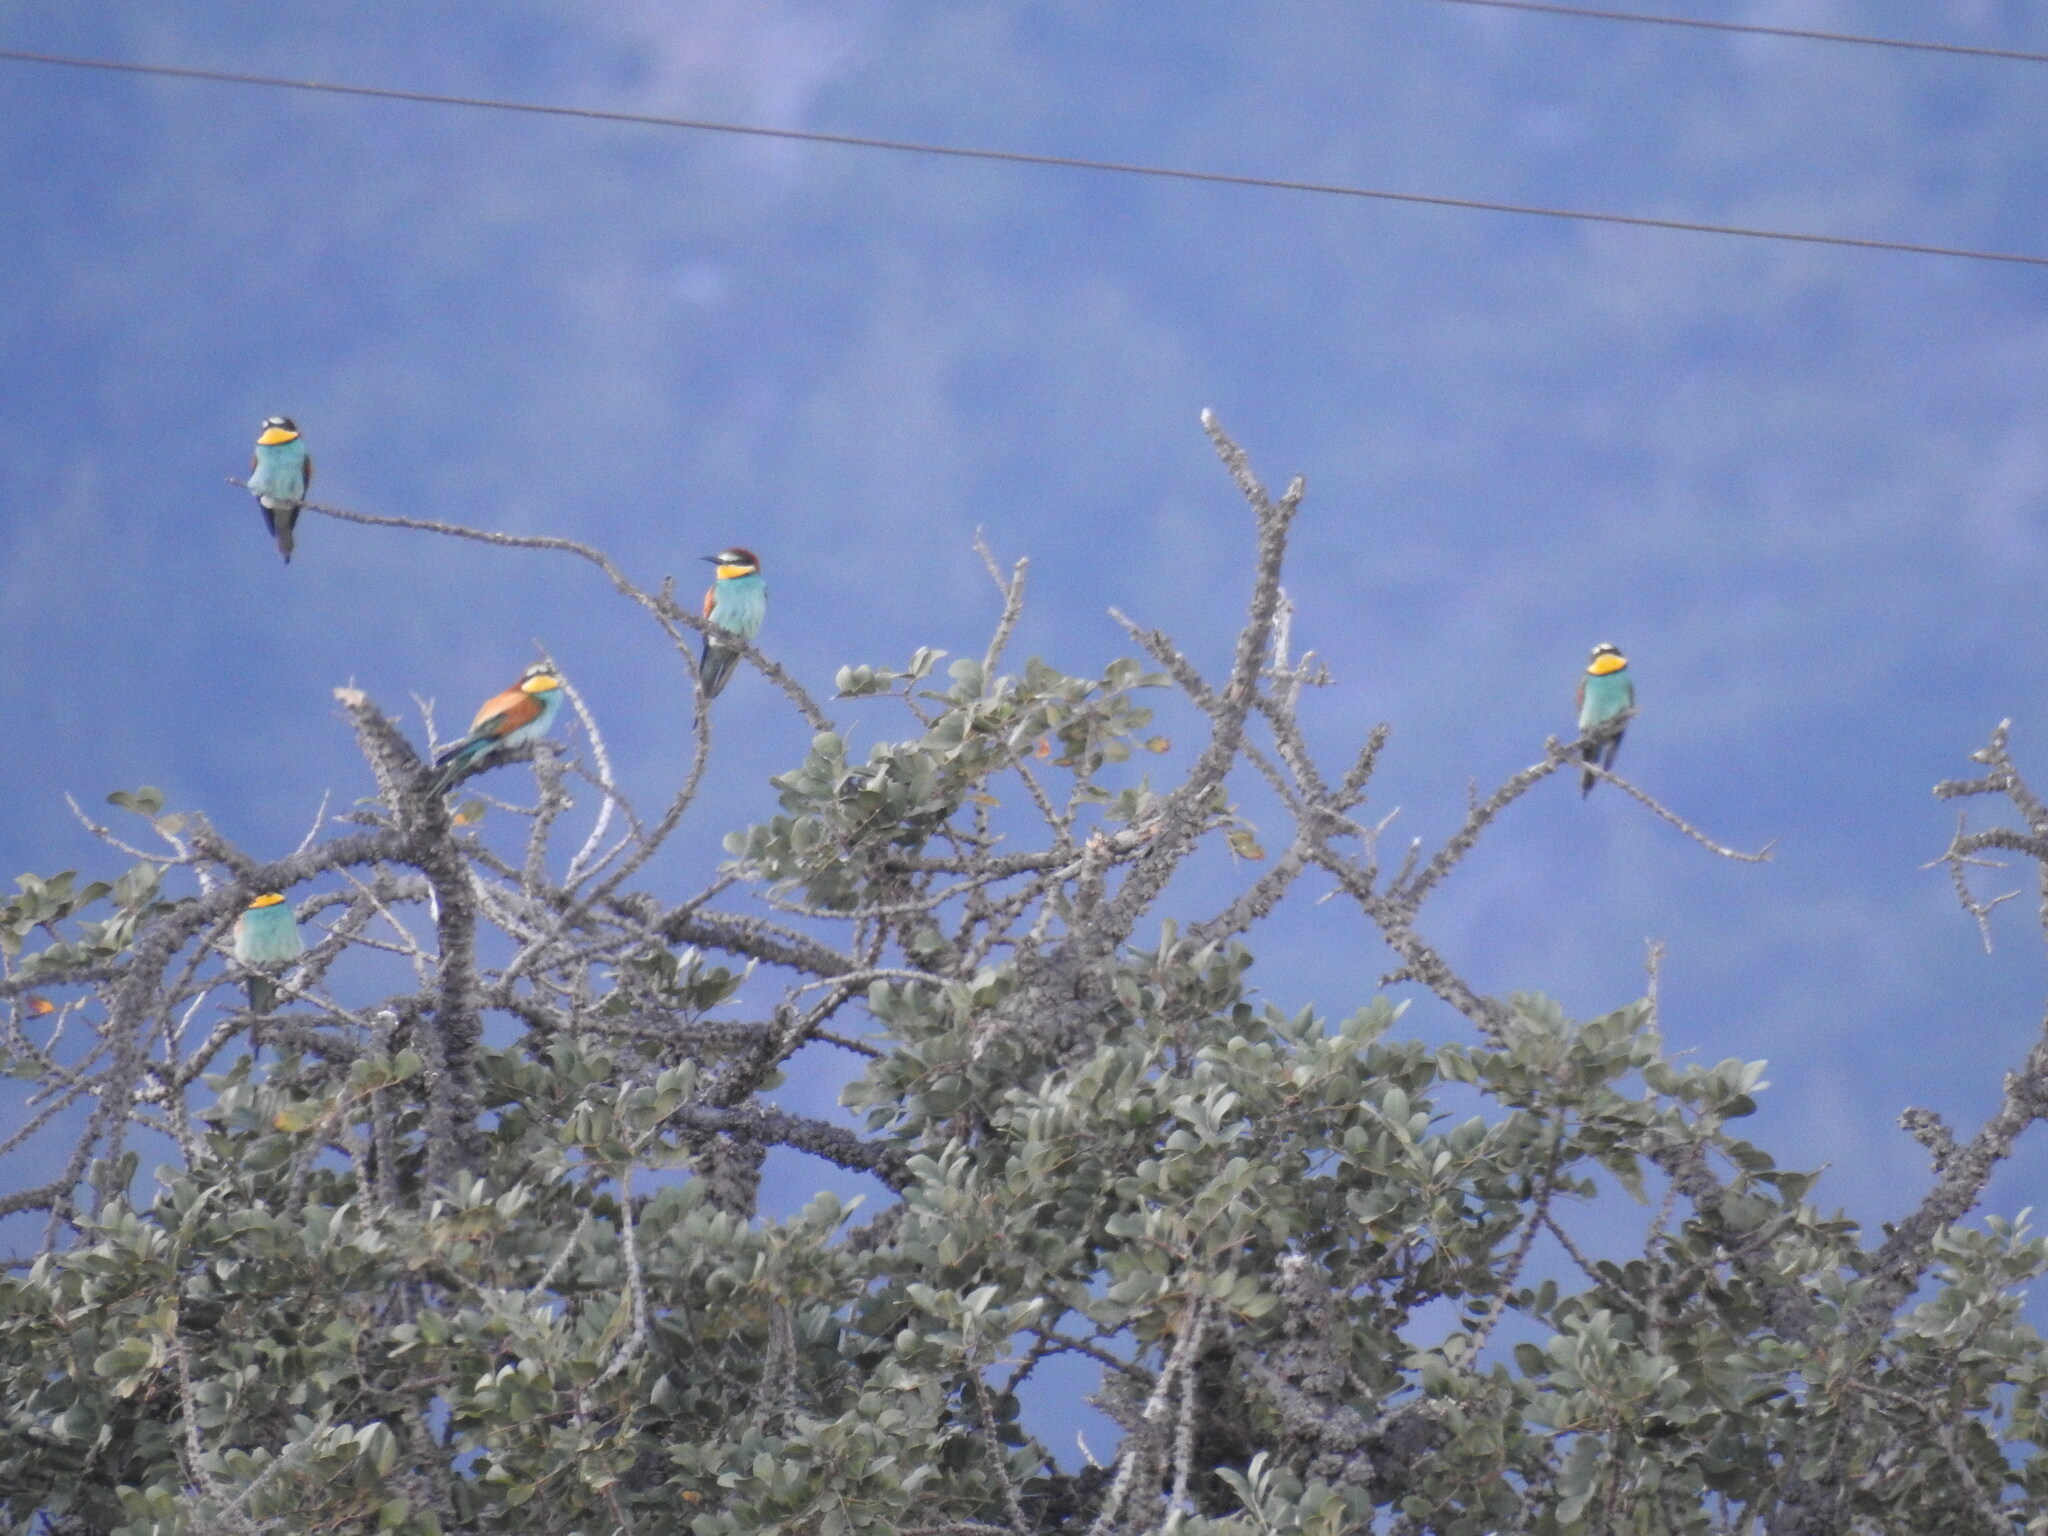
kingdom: Animalia
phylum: Chordata
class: Aves
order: Coraciiformes
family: Meropidae
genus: Merops
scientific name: Merops apiaster
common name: European bee-eater
